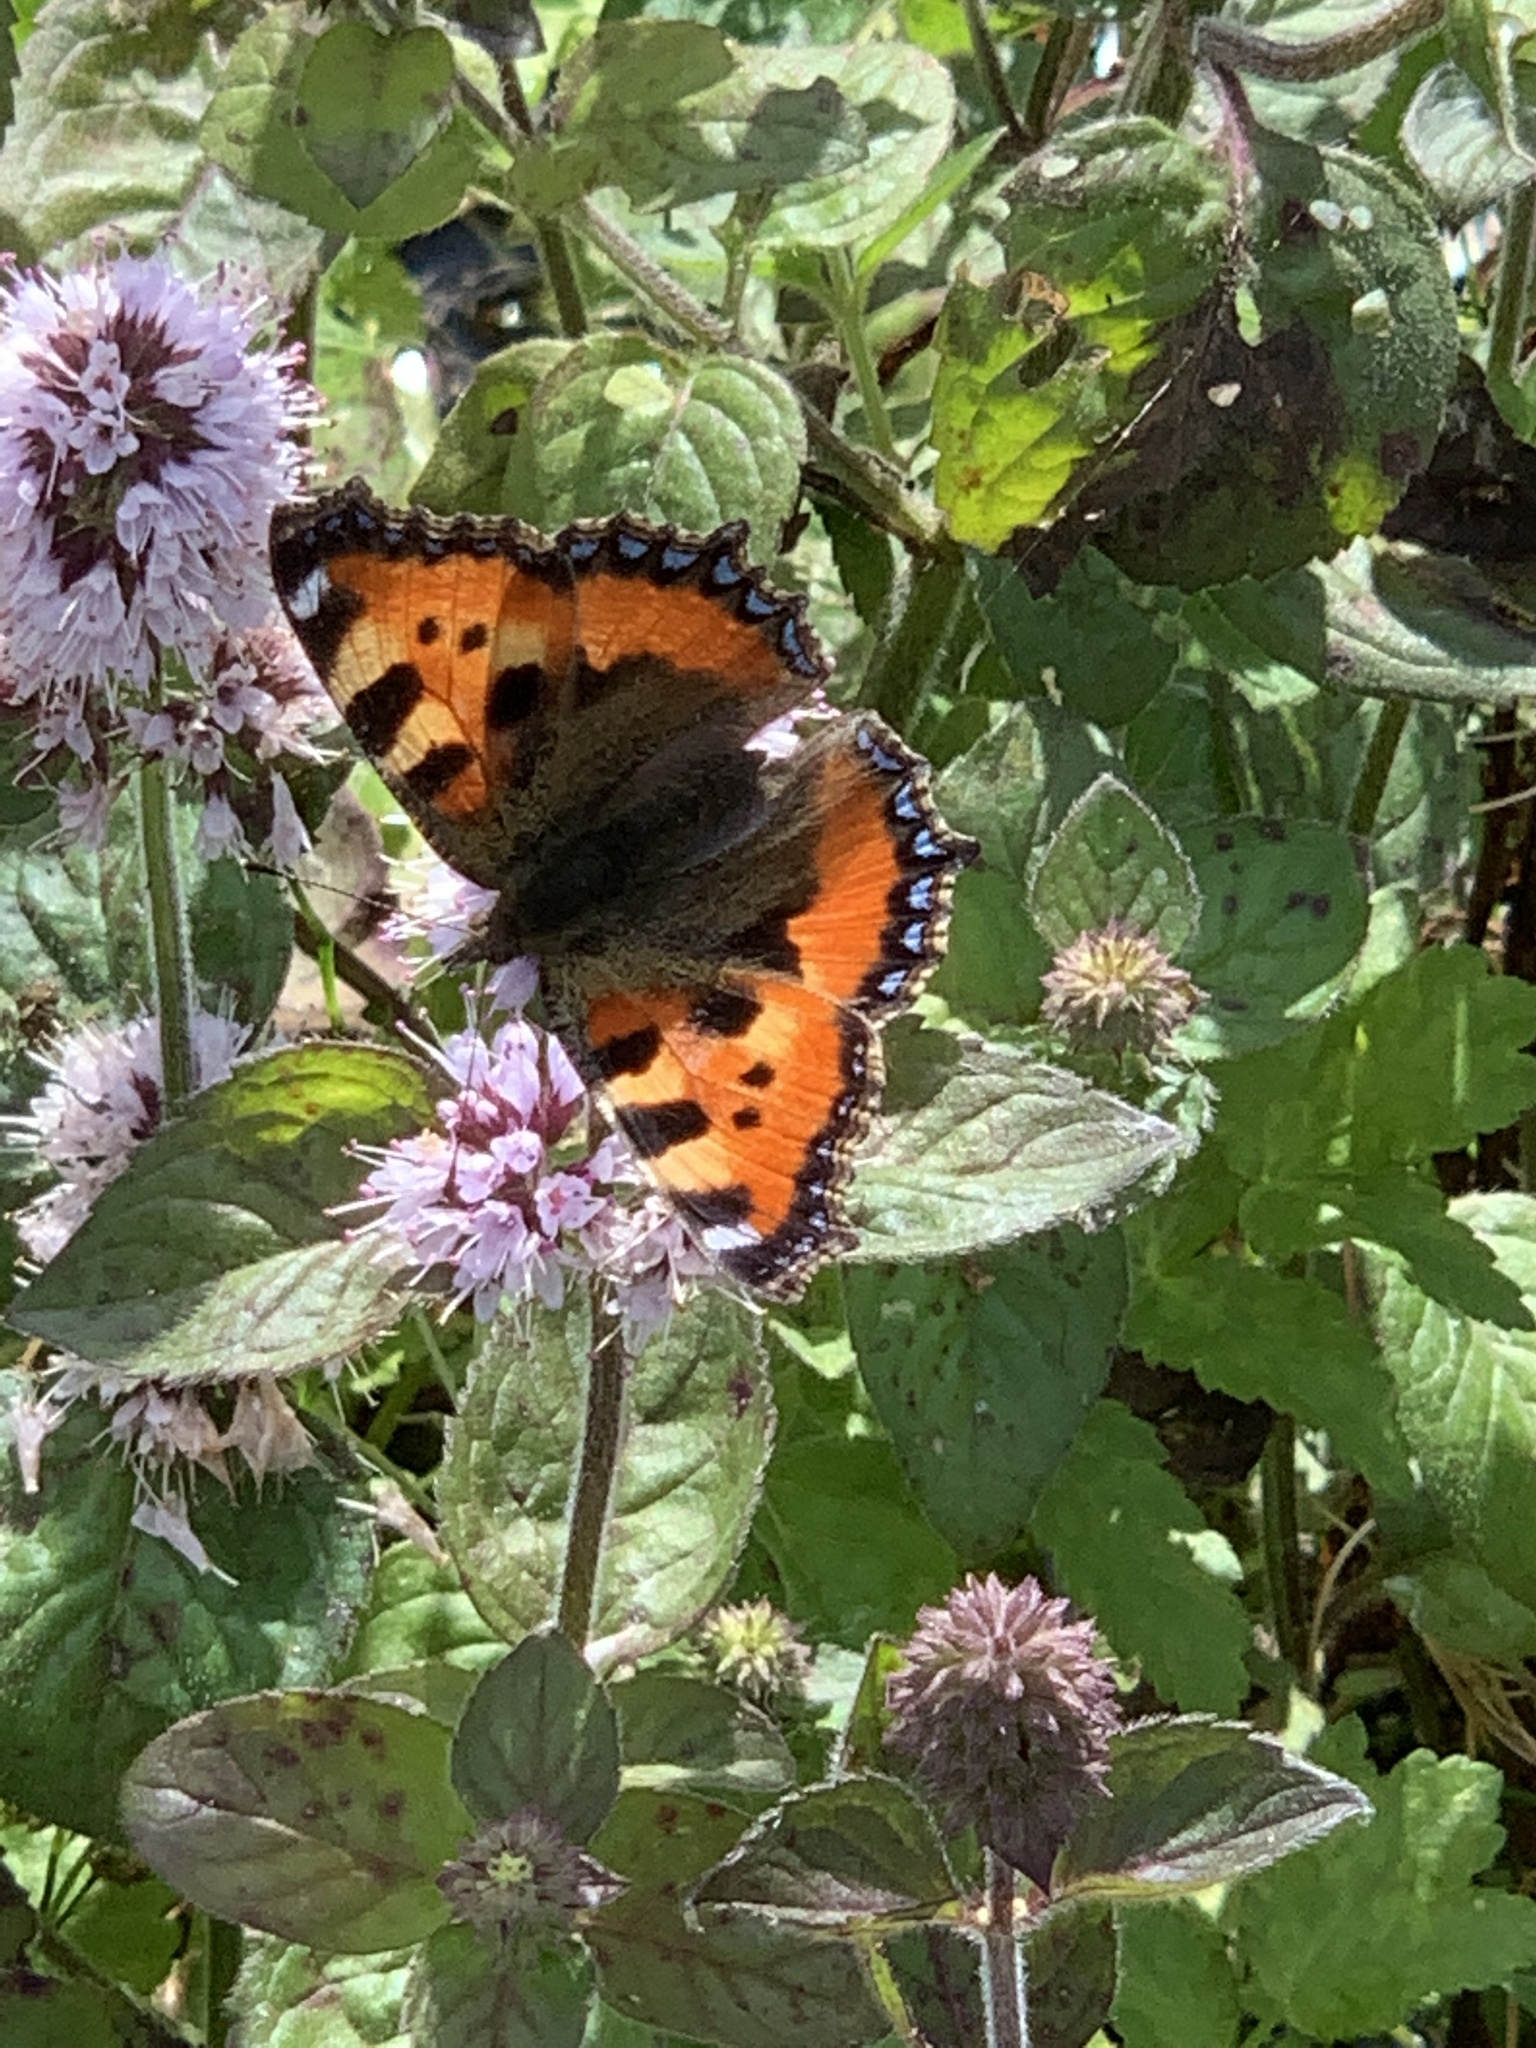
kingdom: Animalia
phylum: Arthropoda
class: Insecta
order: Lepidoptera
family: Nymphalidae
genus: Aglais
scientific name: Aglais urticae
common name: Small tortoiseshell
